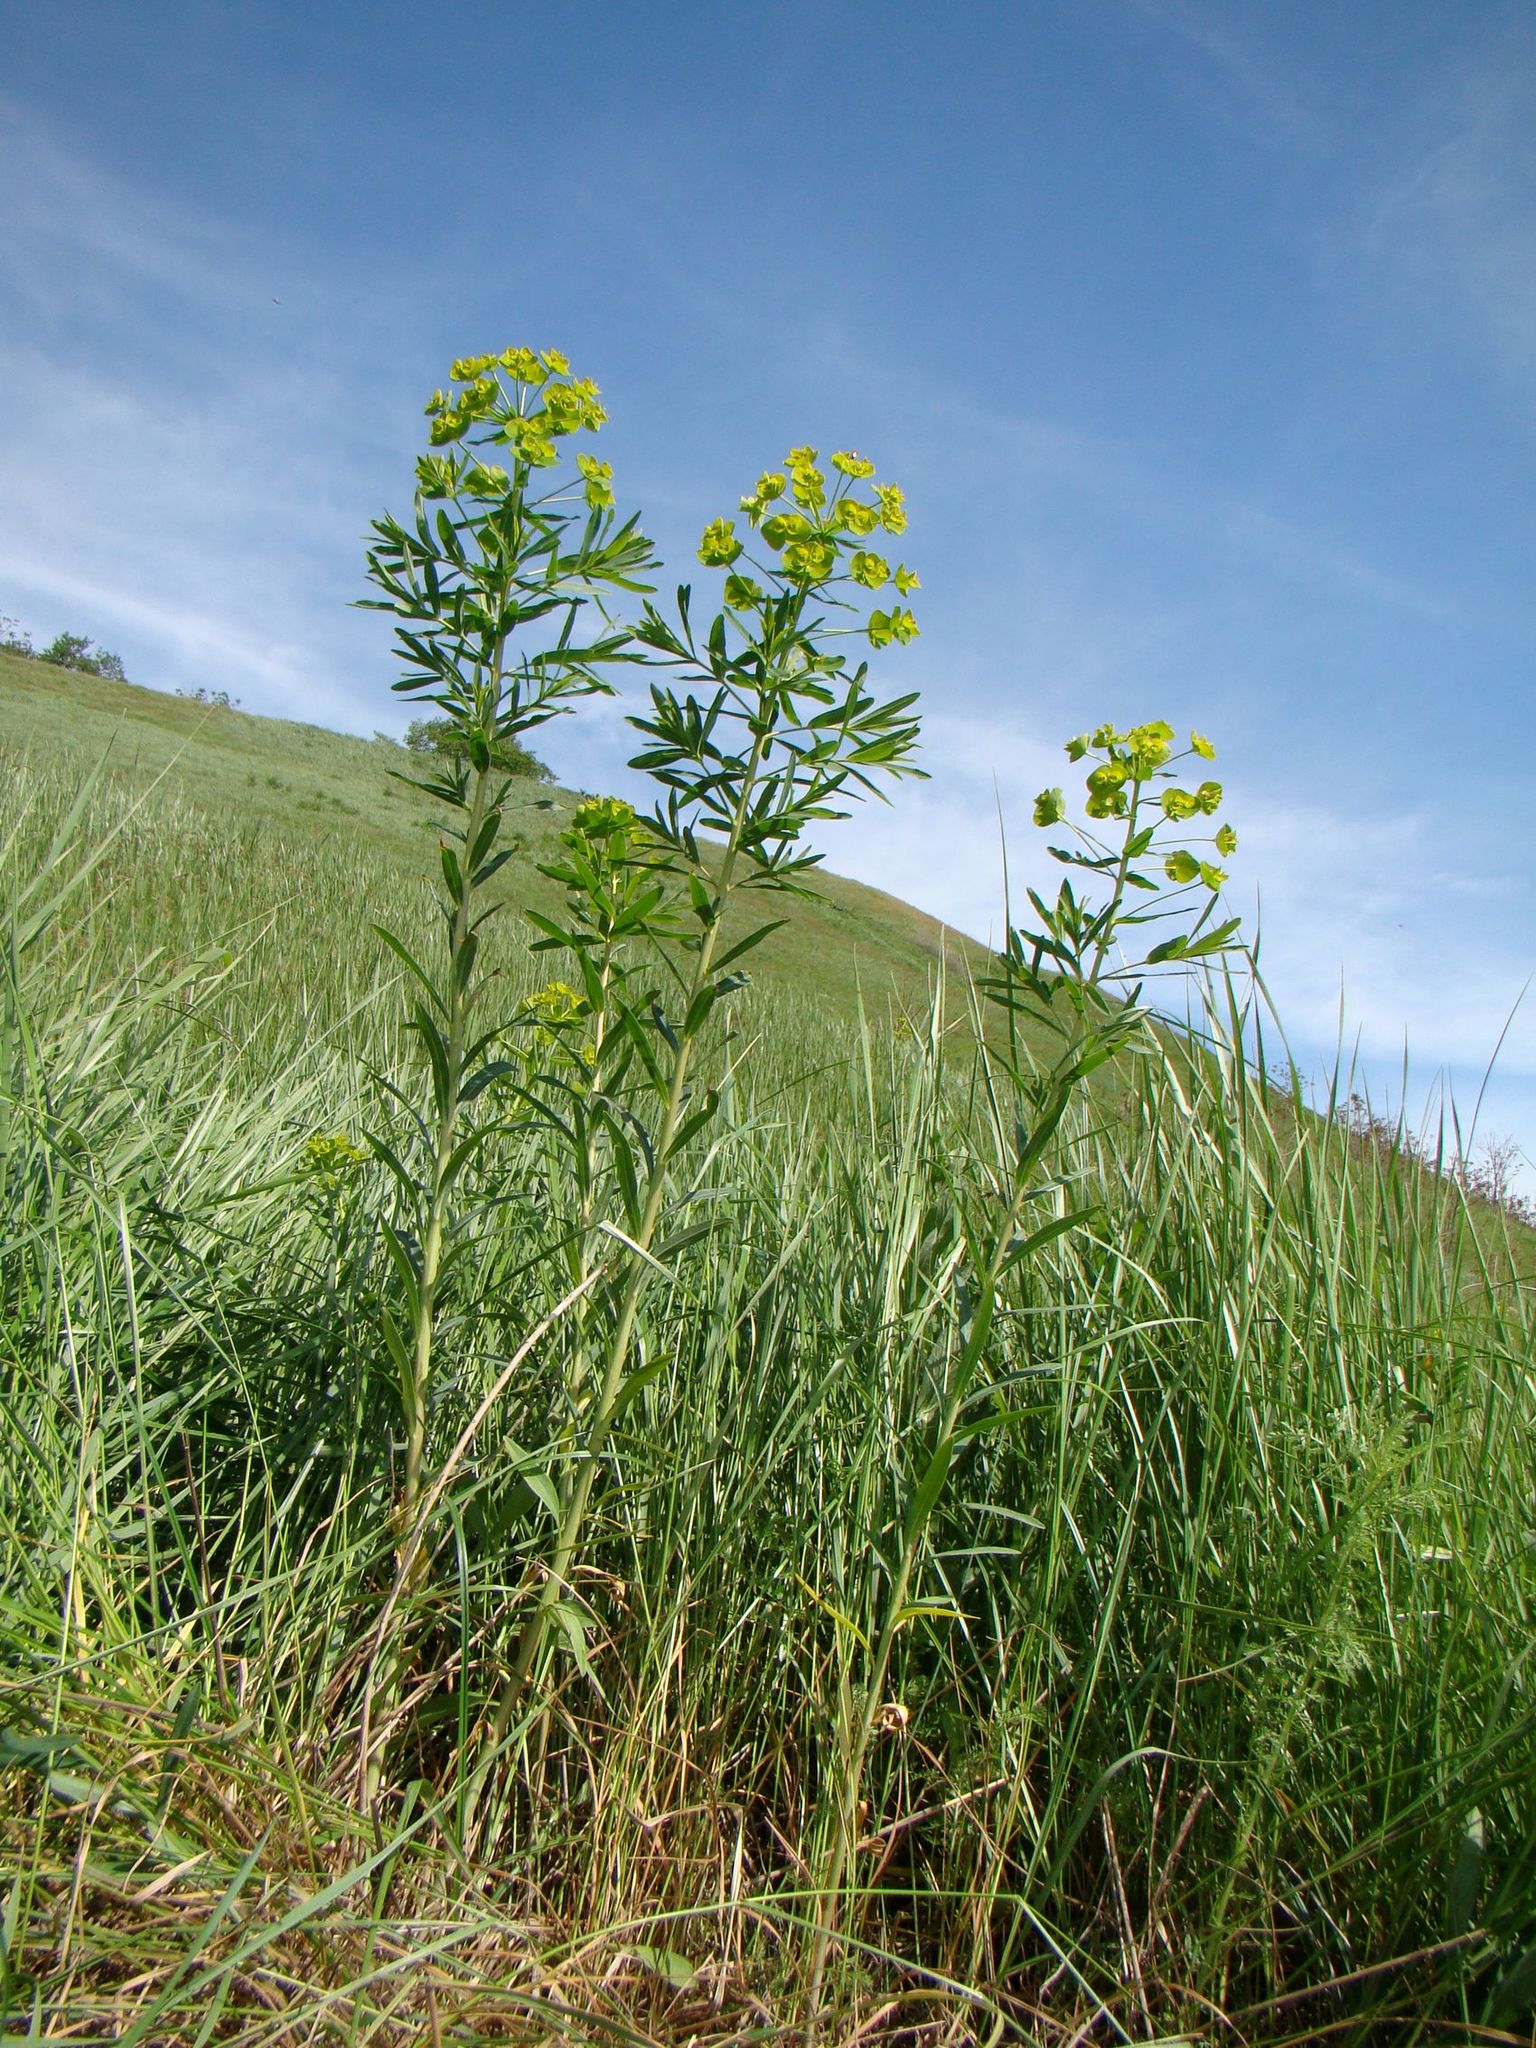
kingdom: Plantae
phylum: Tracheophyta
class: Magnoliopsida
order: Malpighiales
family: Euphorbiaceae
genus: Euphorbia
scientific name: Euphorbia virgata
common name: Leafy spurge
